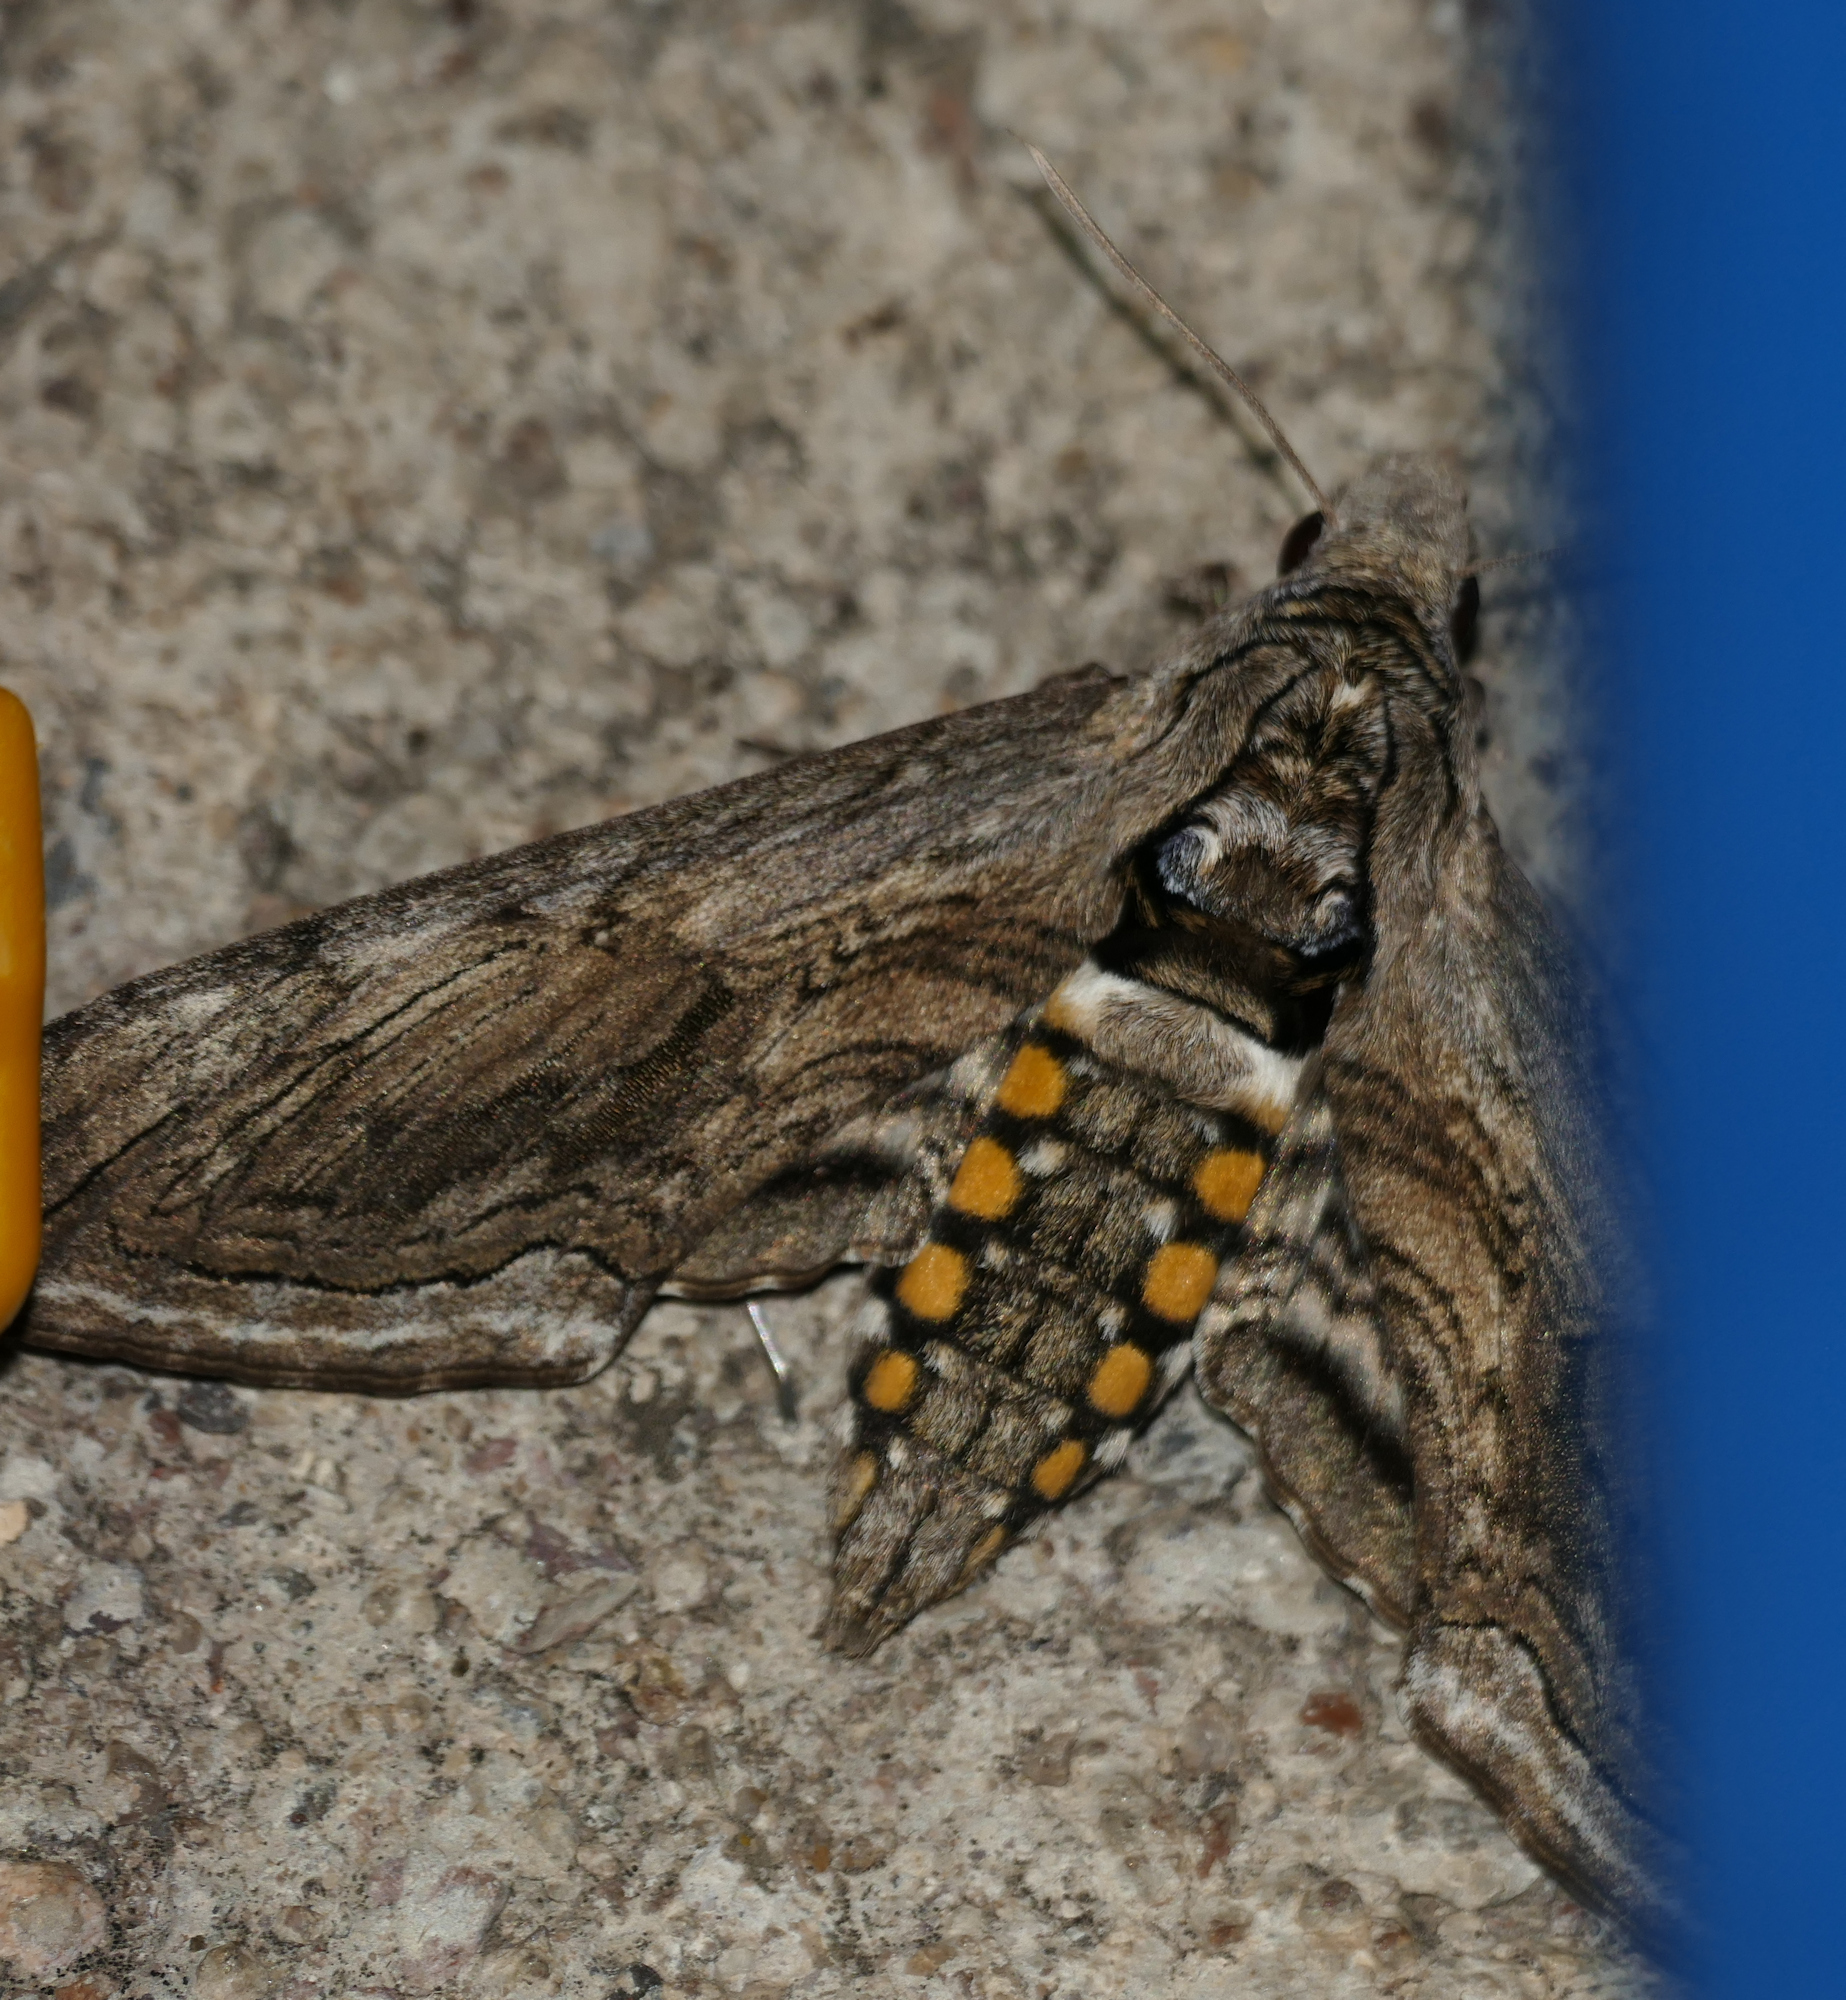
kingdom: Animalia
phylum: Arthropoda
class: Insecta
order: Lepidoptera
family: Sphingidae
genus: Manduca
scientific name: Manduca quinquemaculatus
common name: Five-spotted hawk-moth
